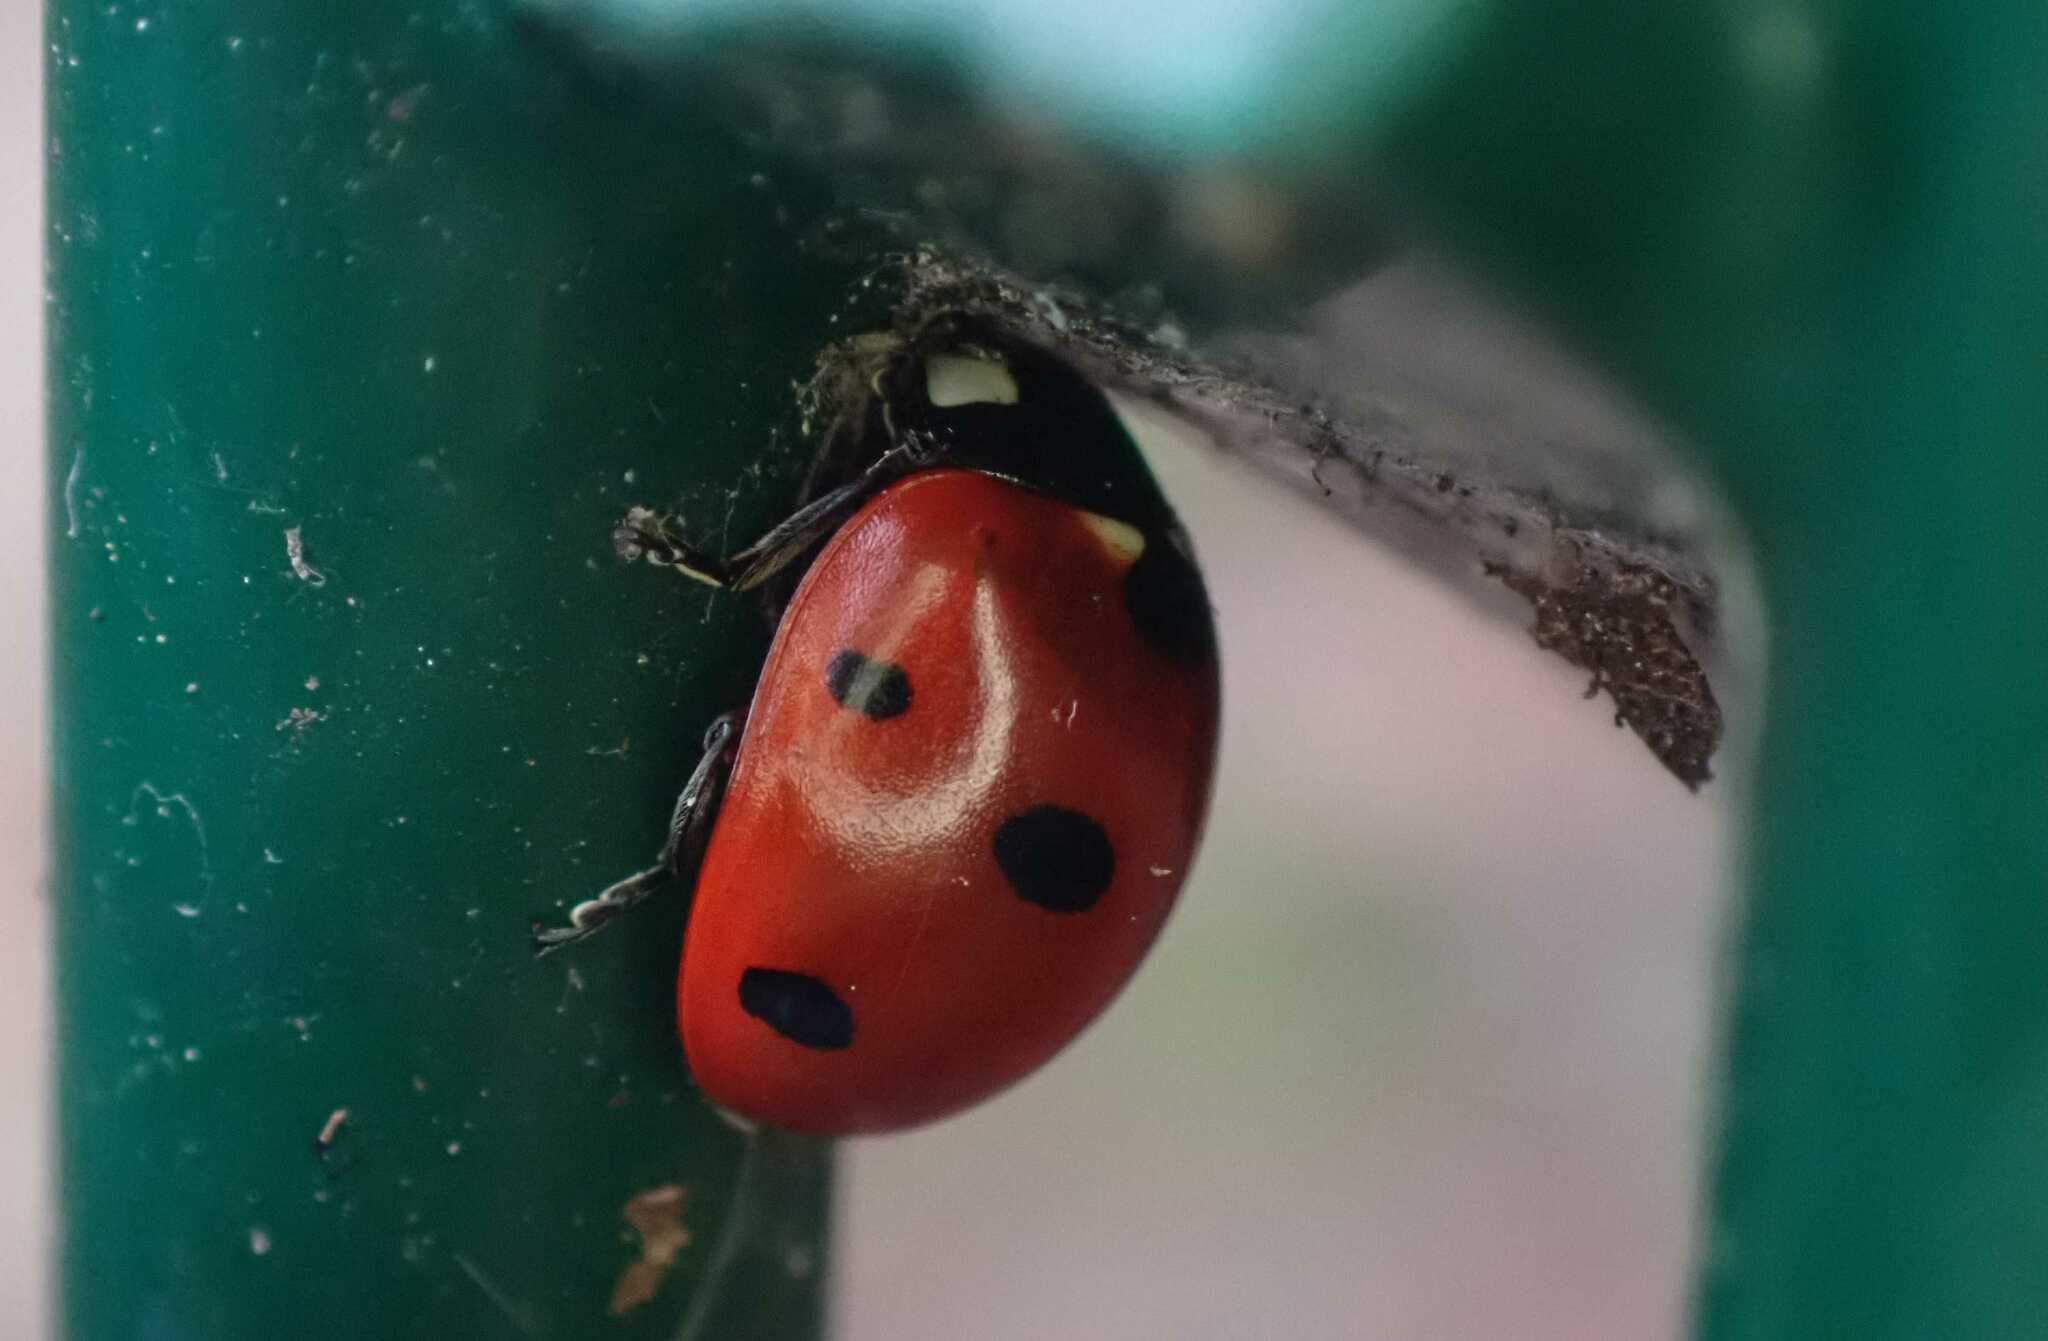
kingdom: Animalia
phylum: Arthropoda
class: Insecta
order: Coleoptera
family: Coccinellidae
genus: Coccinella
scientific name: Coccinella septempunctata
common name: Sevenspotted lady beetle
